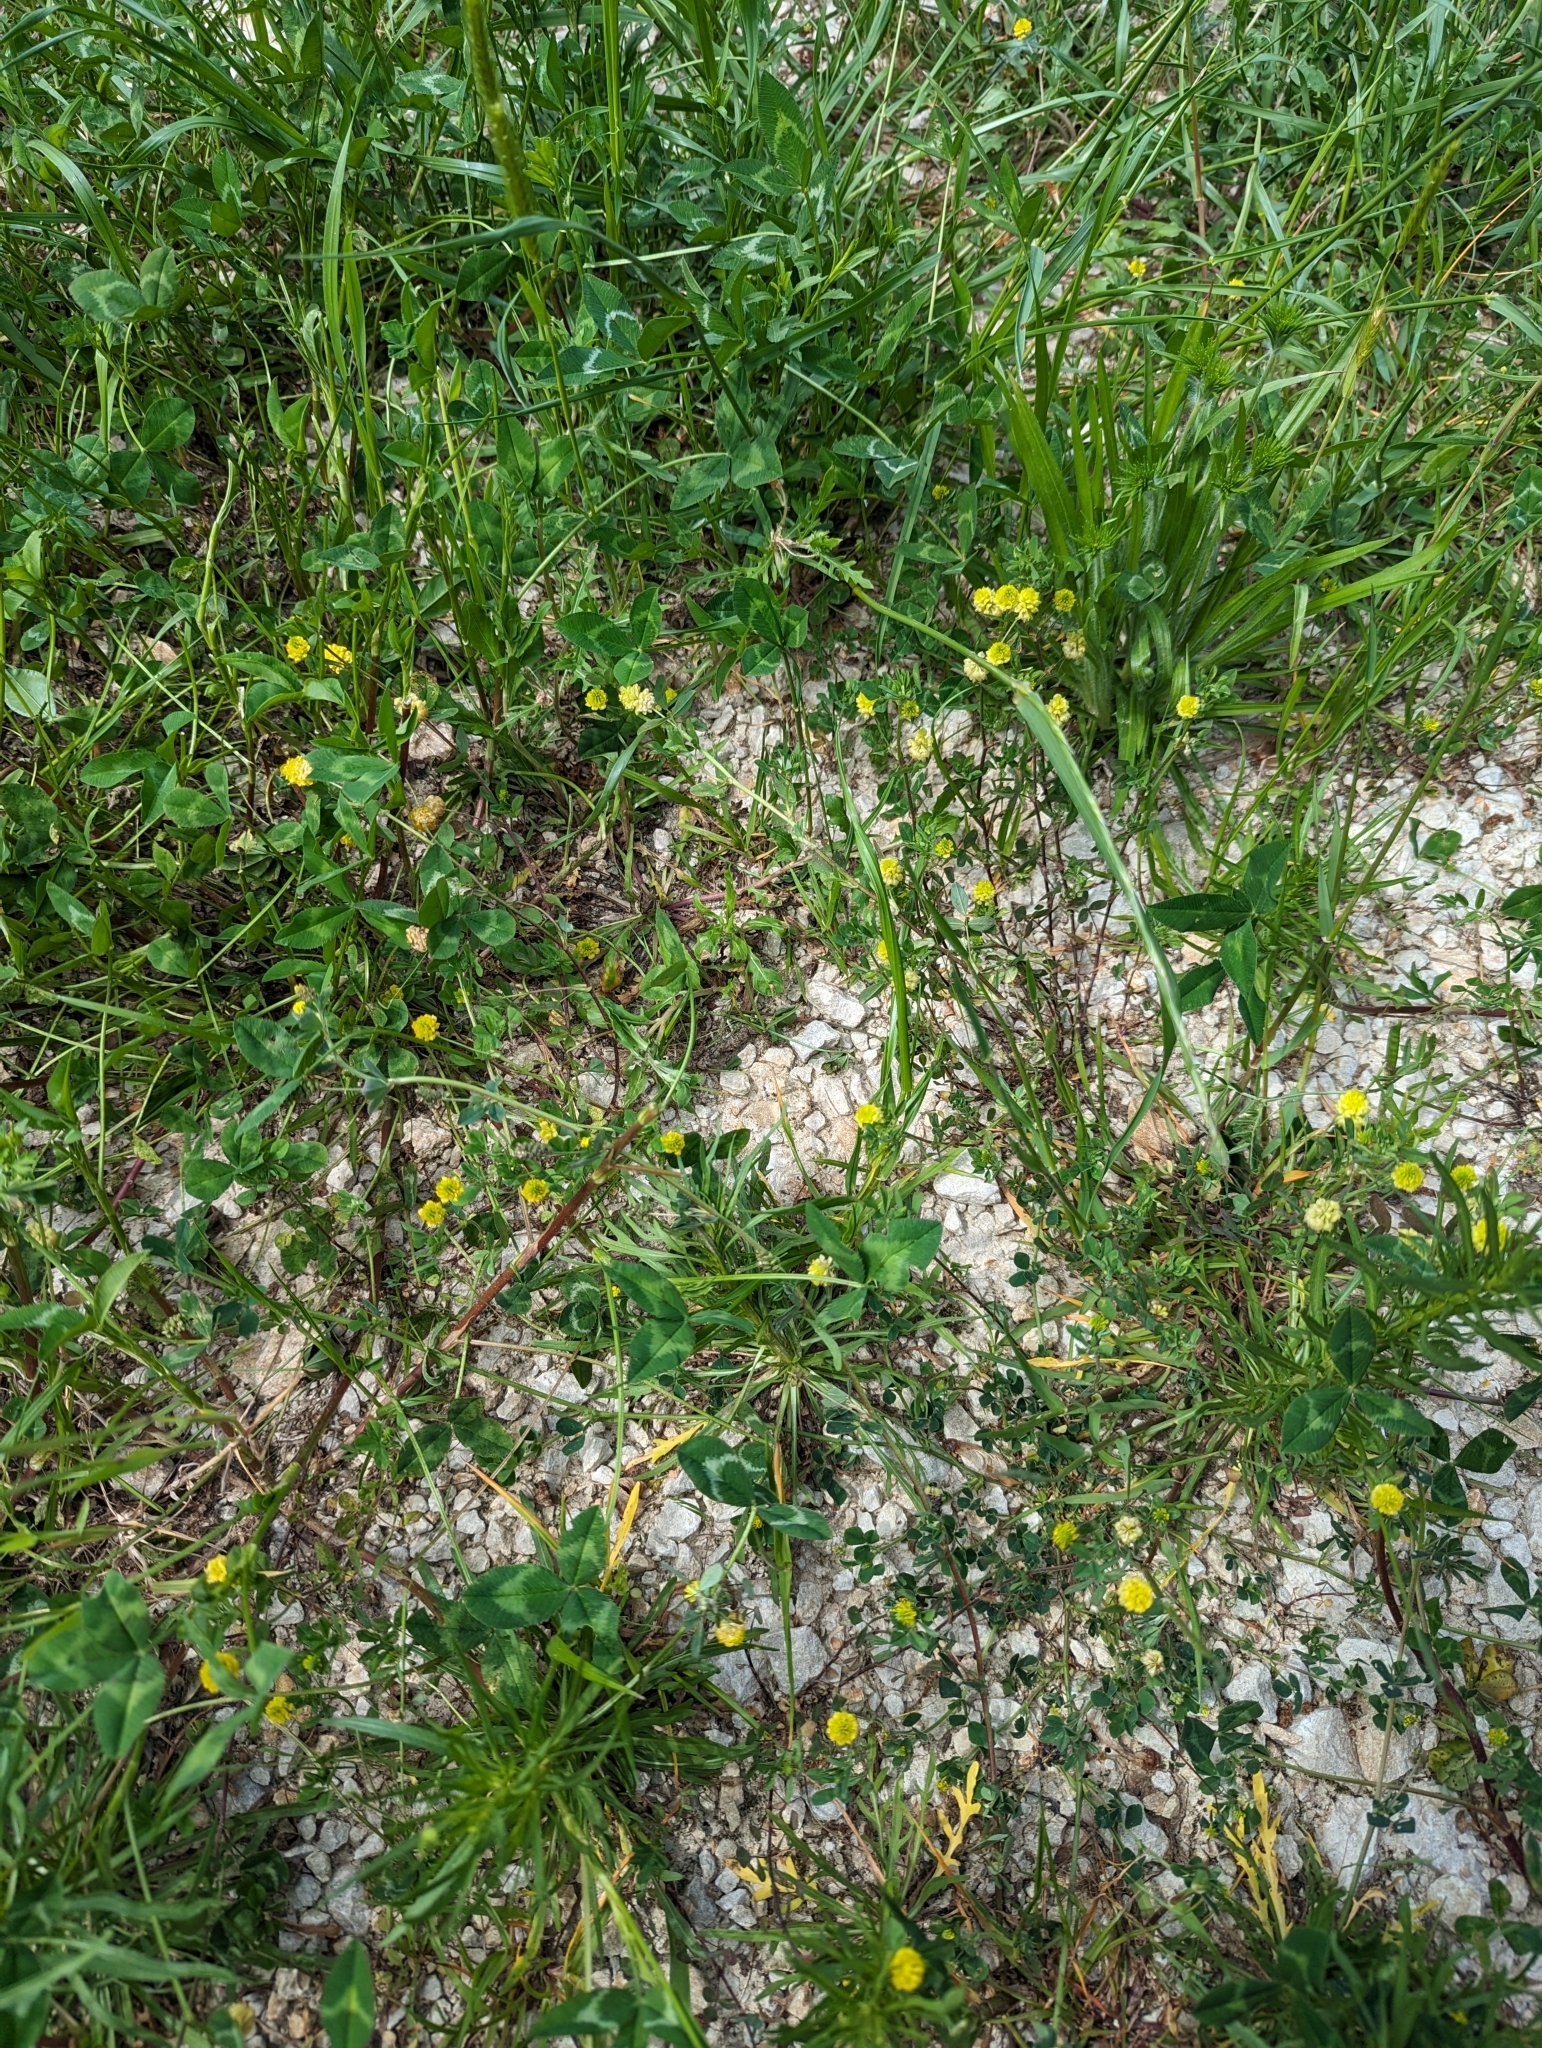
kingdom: Plantae
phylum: Tracheophyta
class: Magnoliopsida
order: Fabales
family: Fabaceae
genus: Trifolium
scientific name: Trifolium campestre
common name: Field clover
